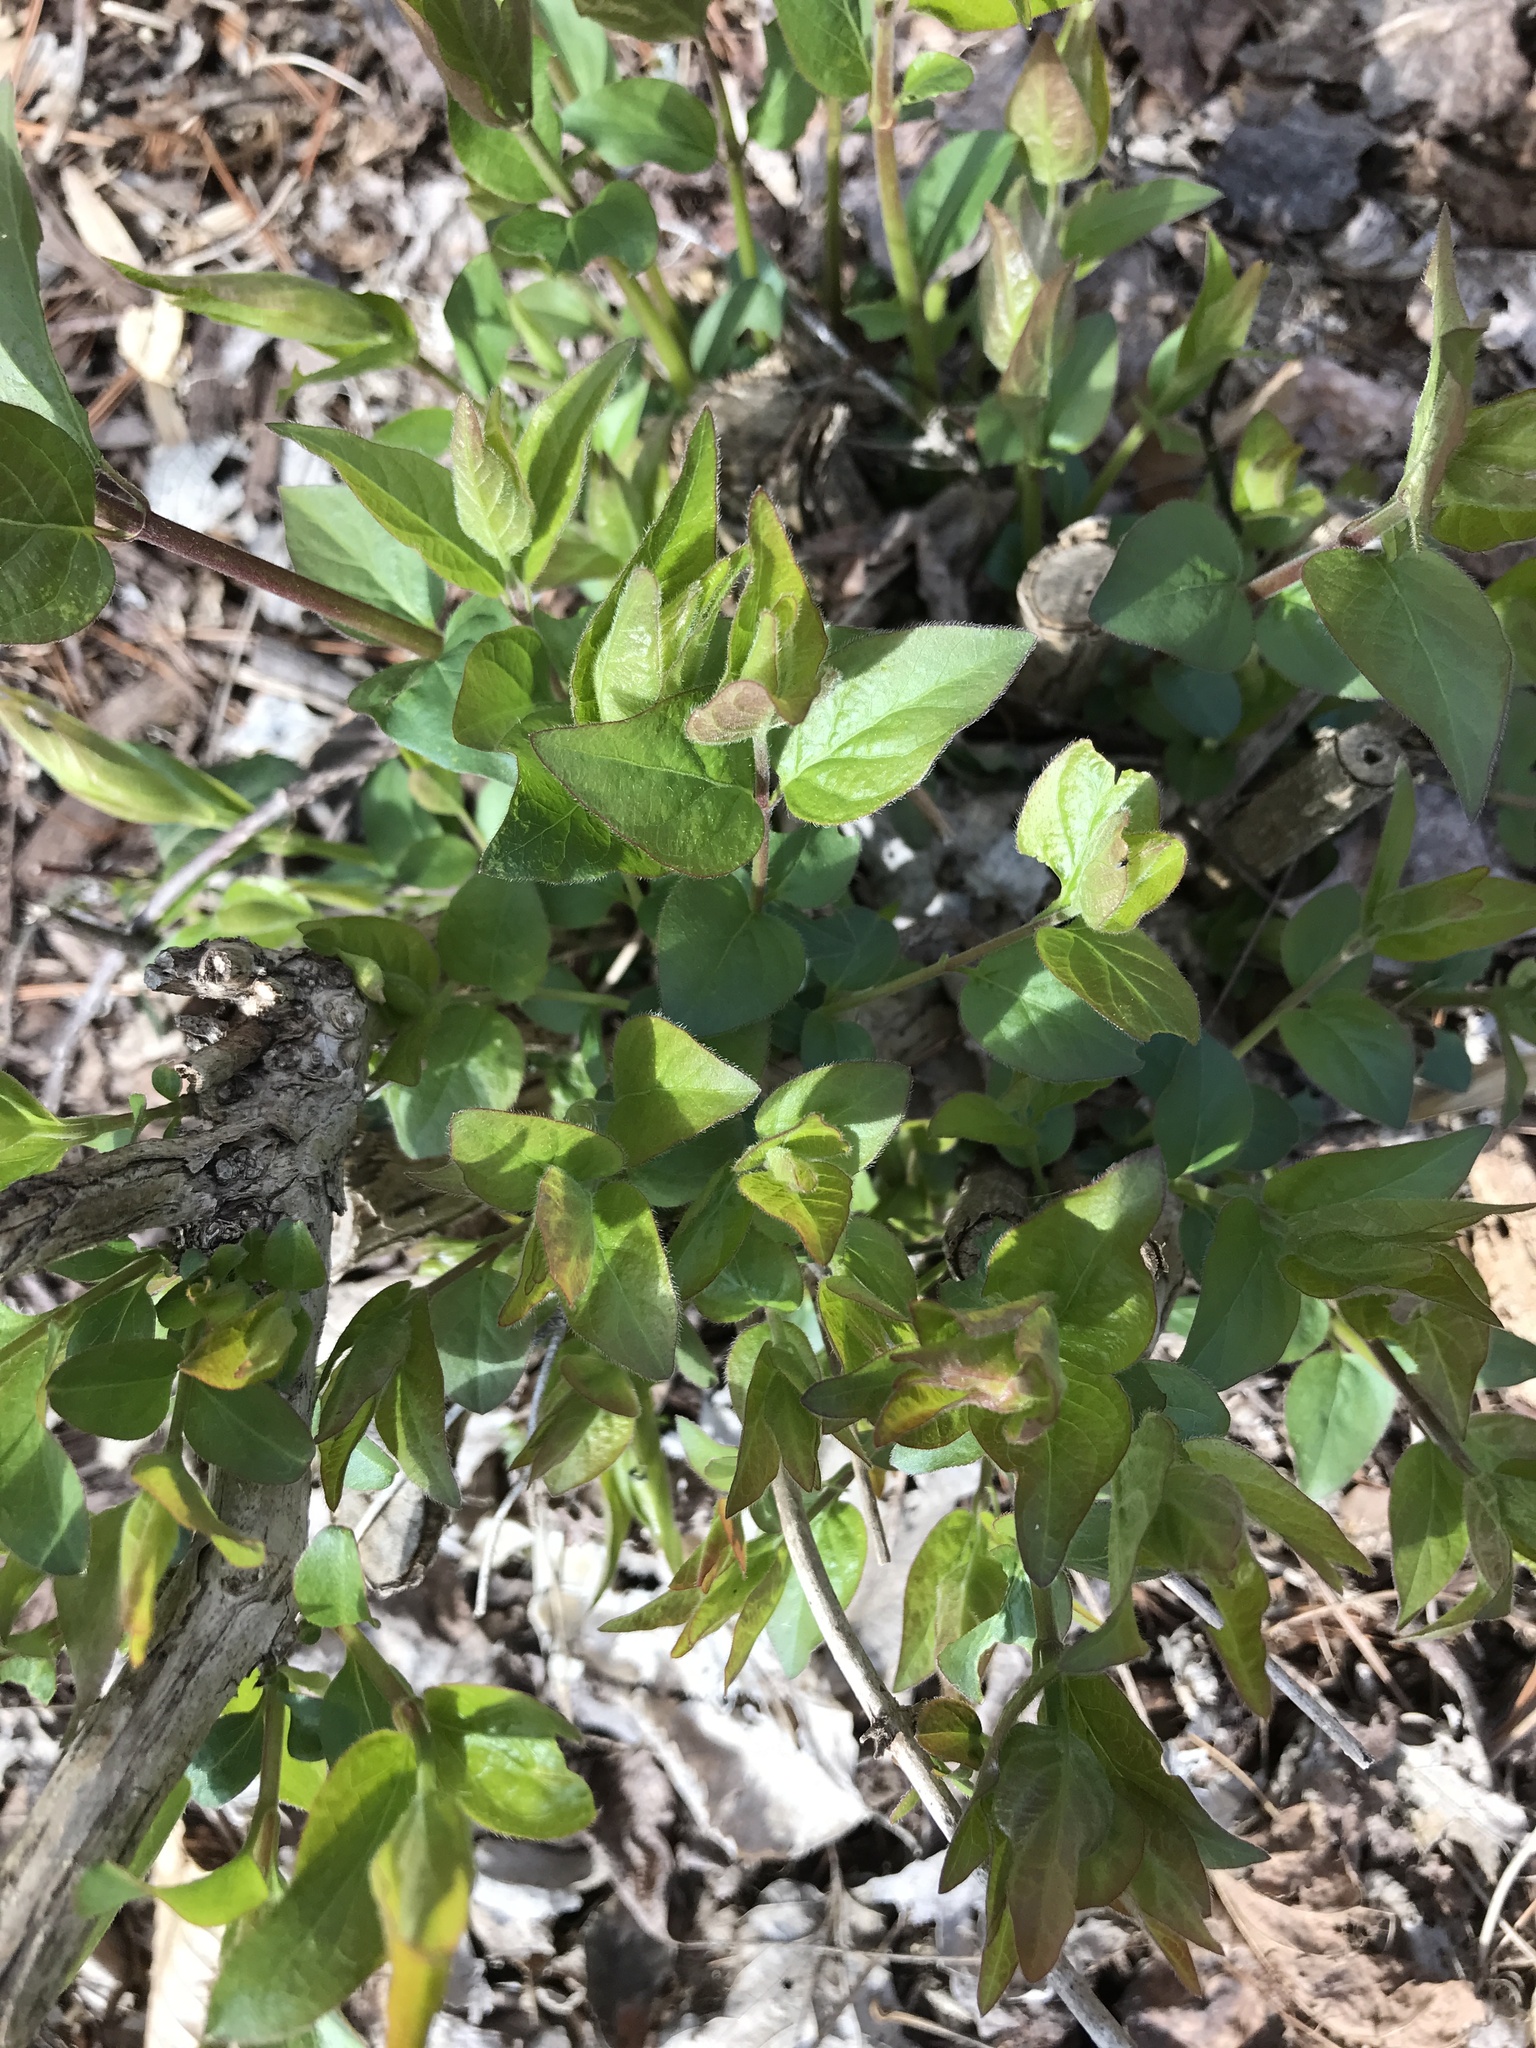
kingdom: Plantae
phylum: Tracheophyta
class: Magnoliopsida
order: Dipsacales
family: Caprifoliaceae
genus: Lonicera
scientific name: Lonicera maackii
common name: Amur honeysuckle
